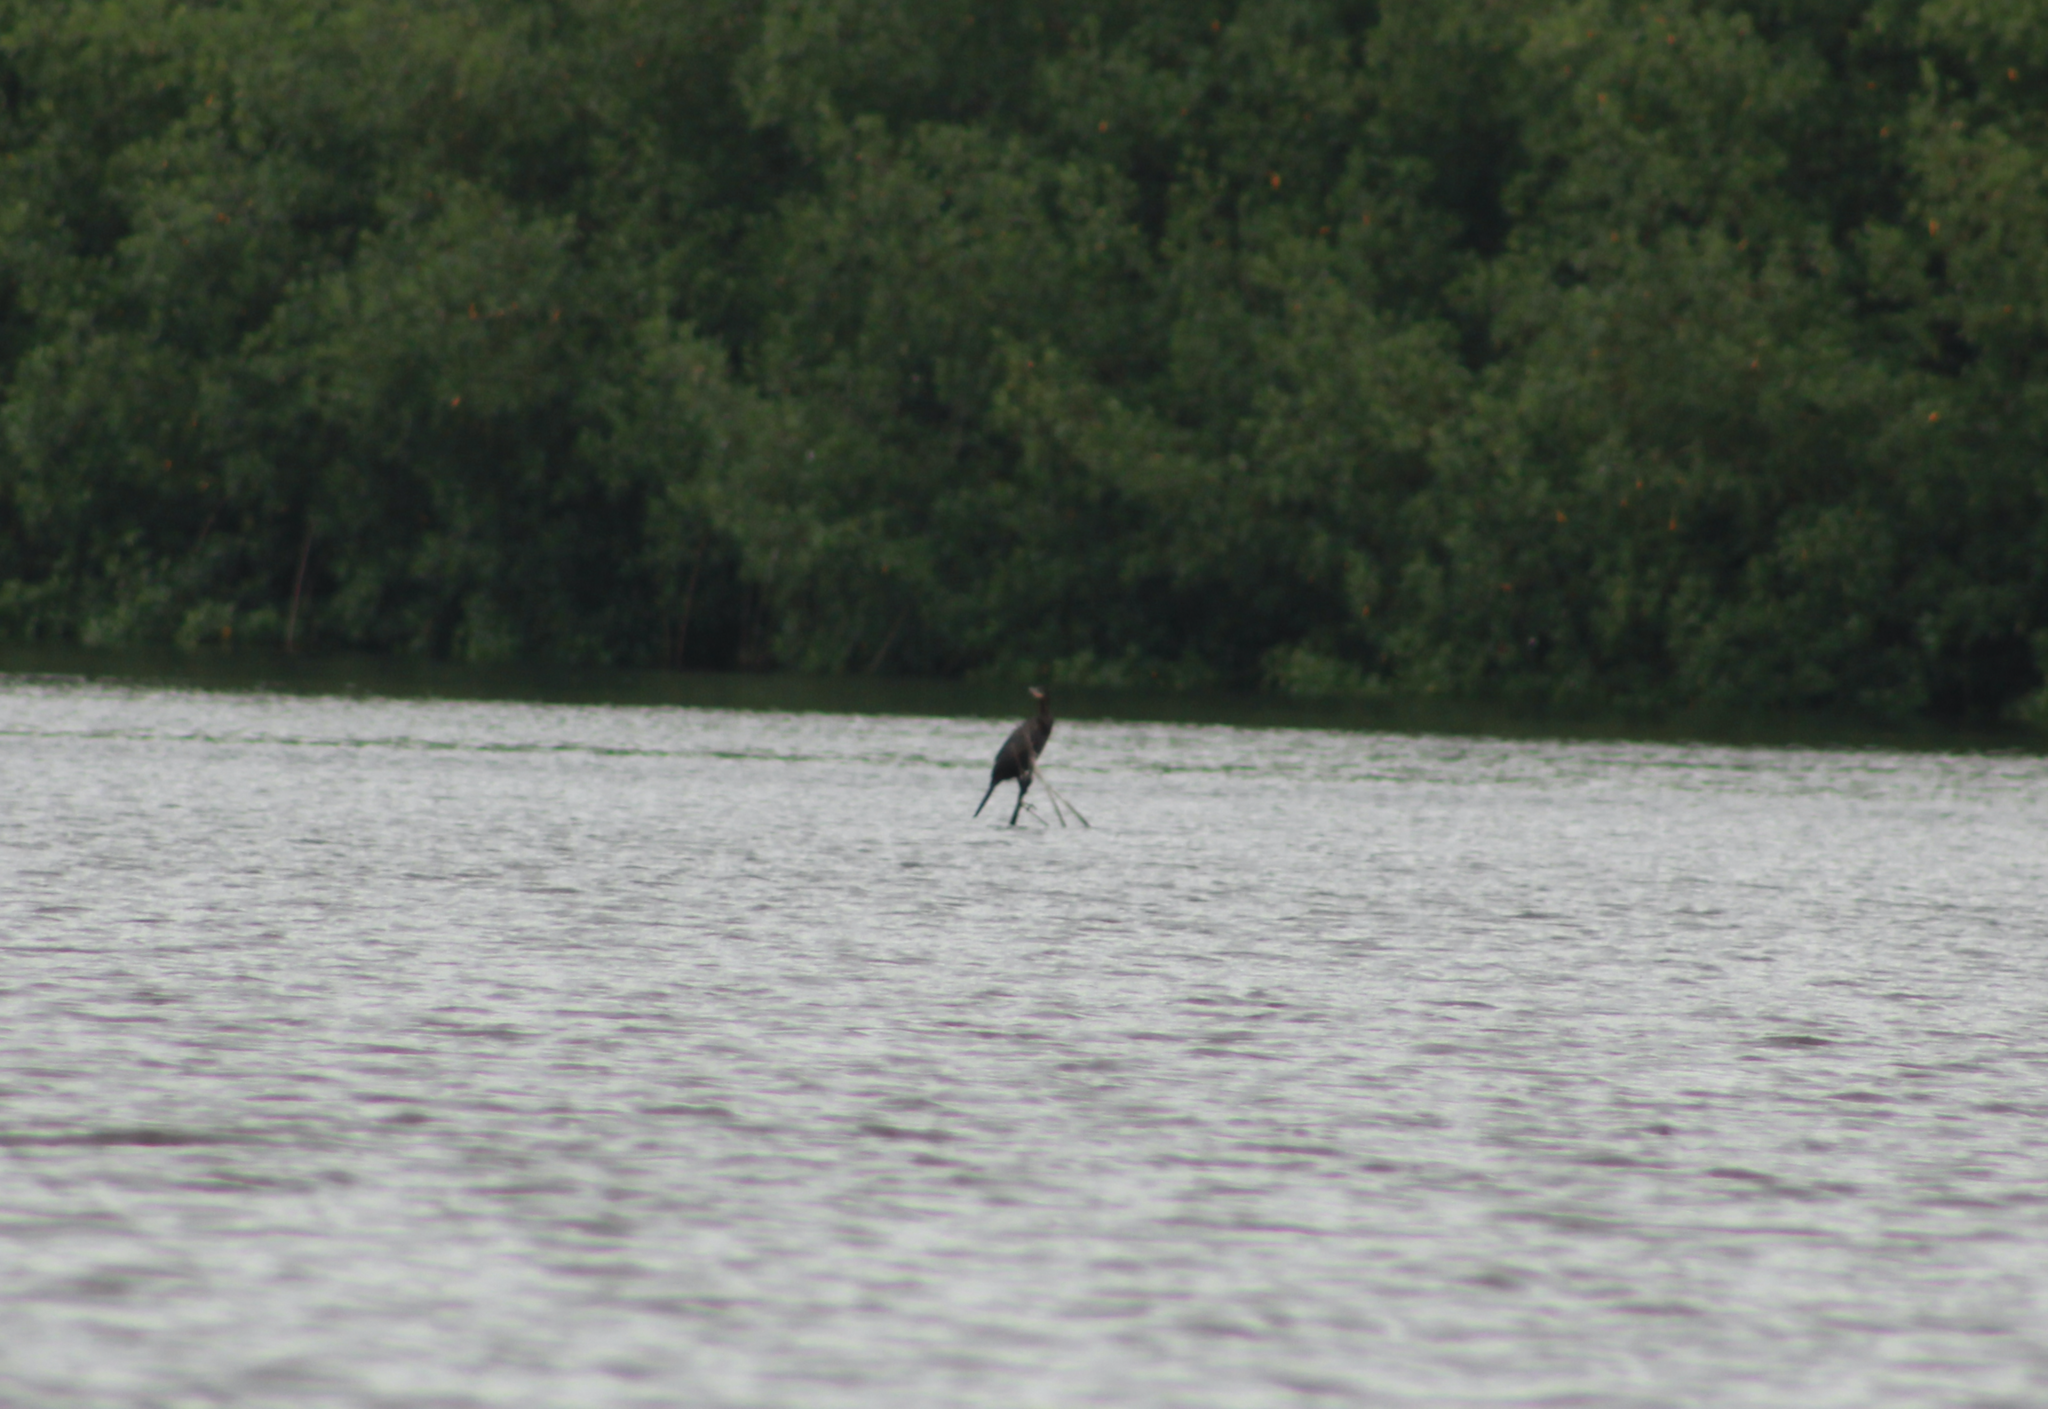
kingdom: Animalia
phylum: Chordata
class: Aves
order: Suliformes
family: Phalacrocoracidae
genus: Phalacrocorax
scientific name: Phalacrocorax brasilianus
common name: Neotropic cormorant
